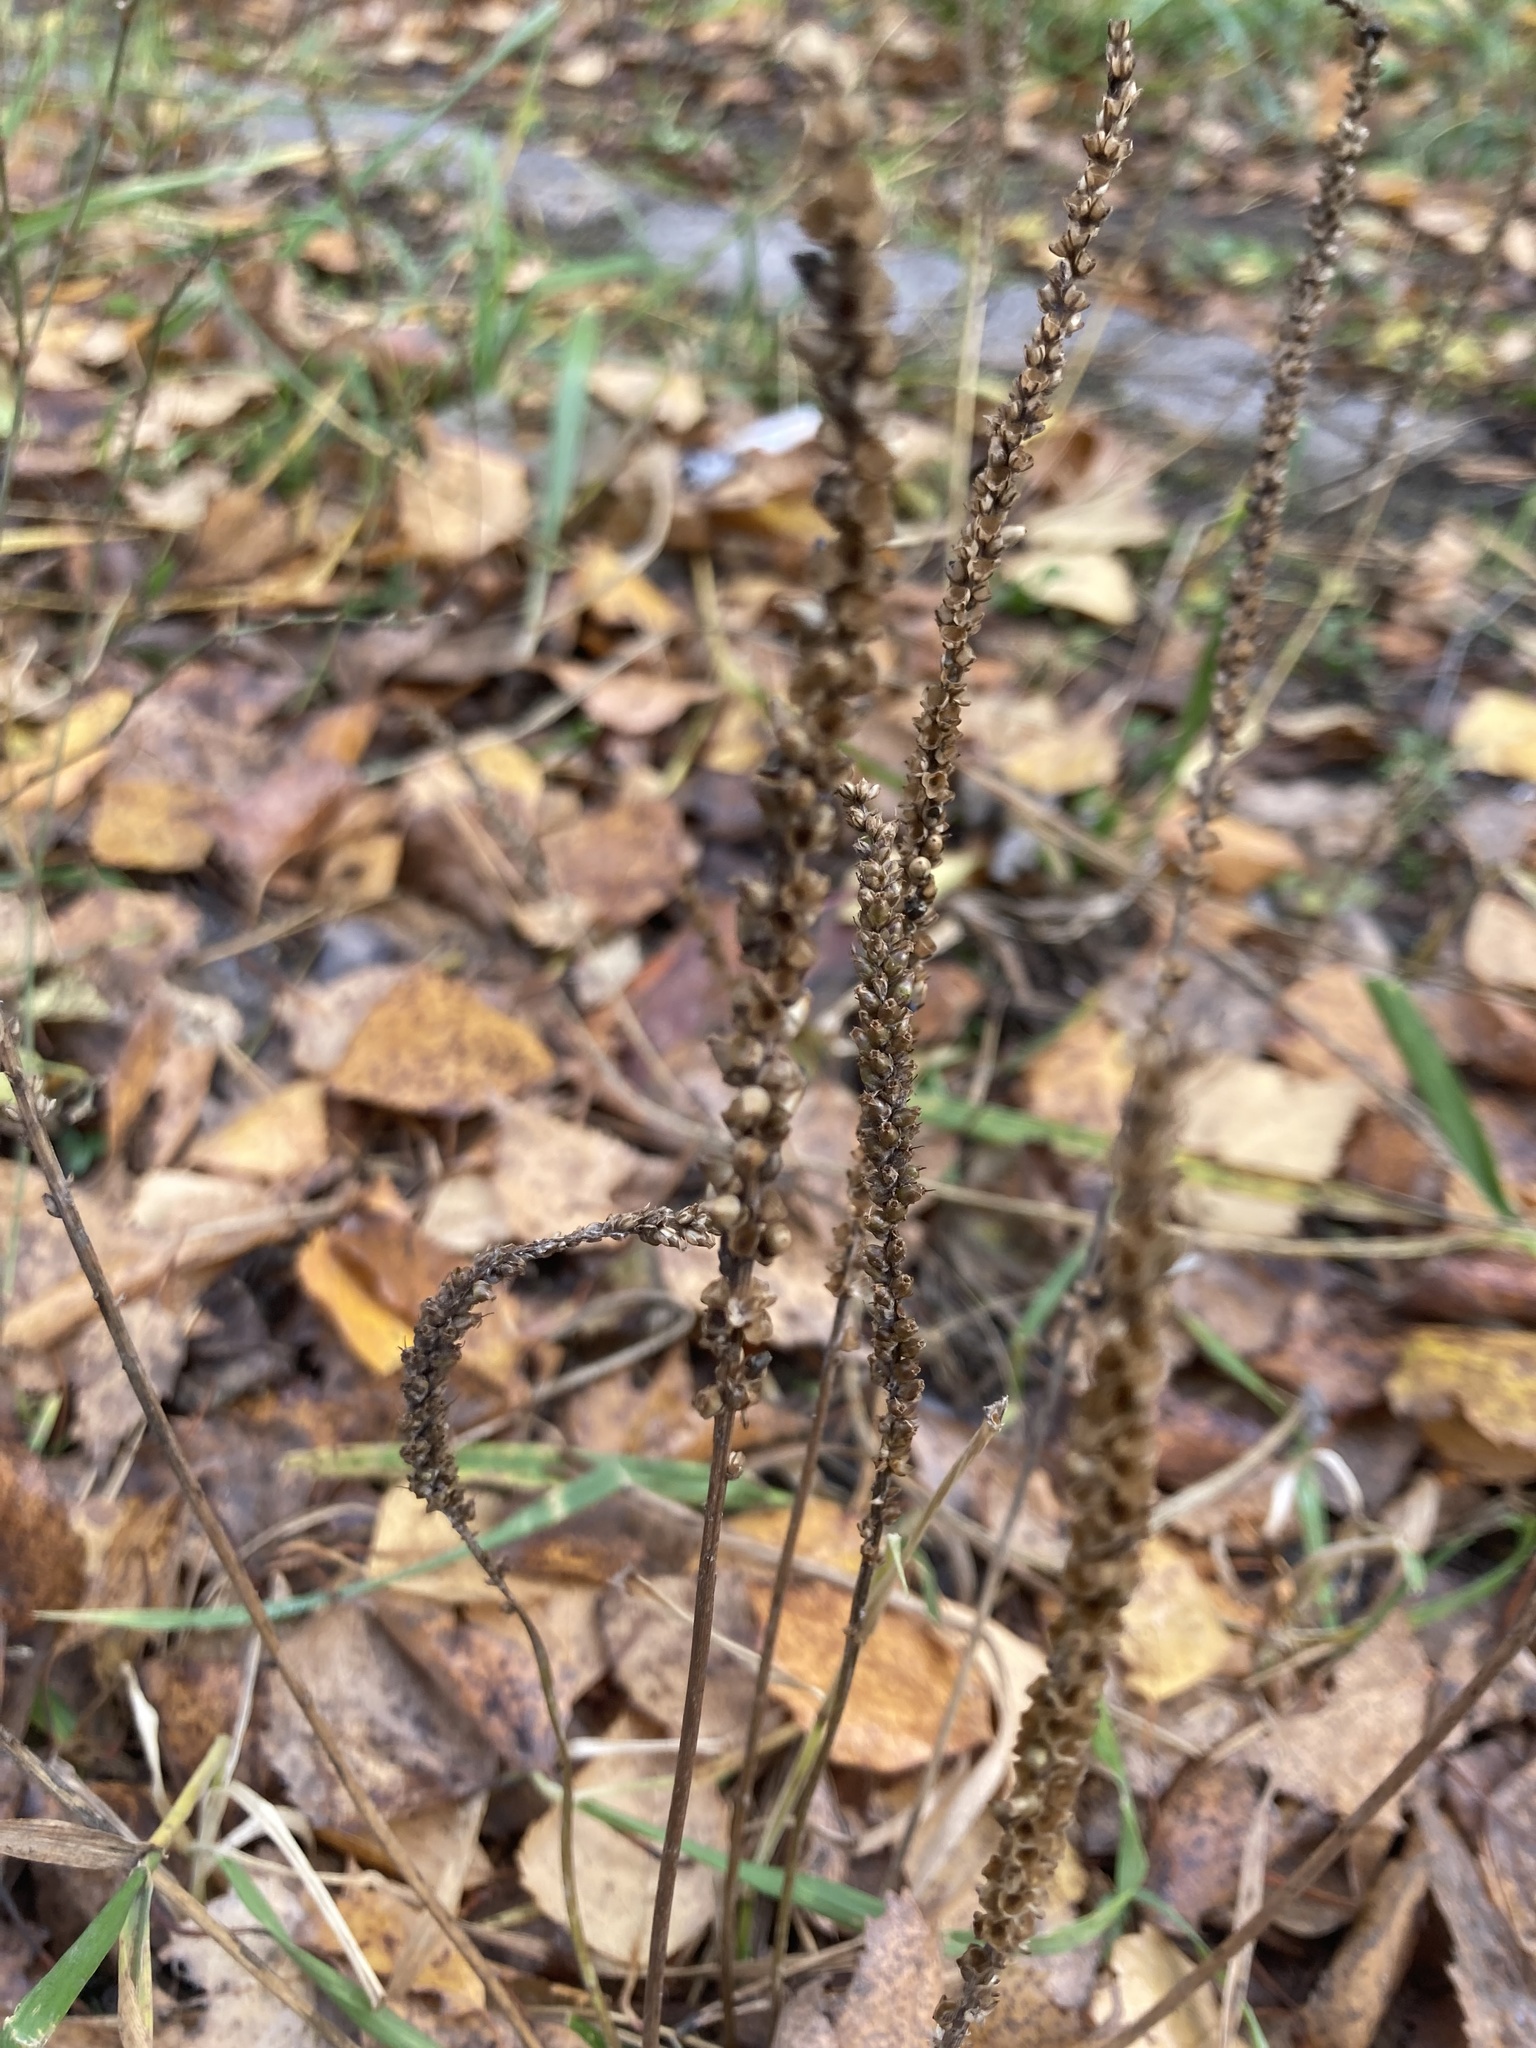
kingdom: Plantae
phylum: Tracheophyta
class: Magnoliopsida
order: Lamiales
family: Plantaginaceae
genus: Plantago
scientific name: Plantago major
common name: Common plantain
